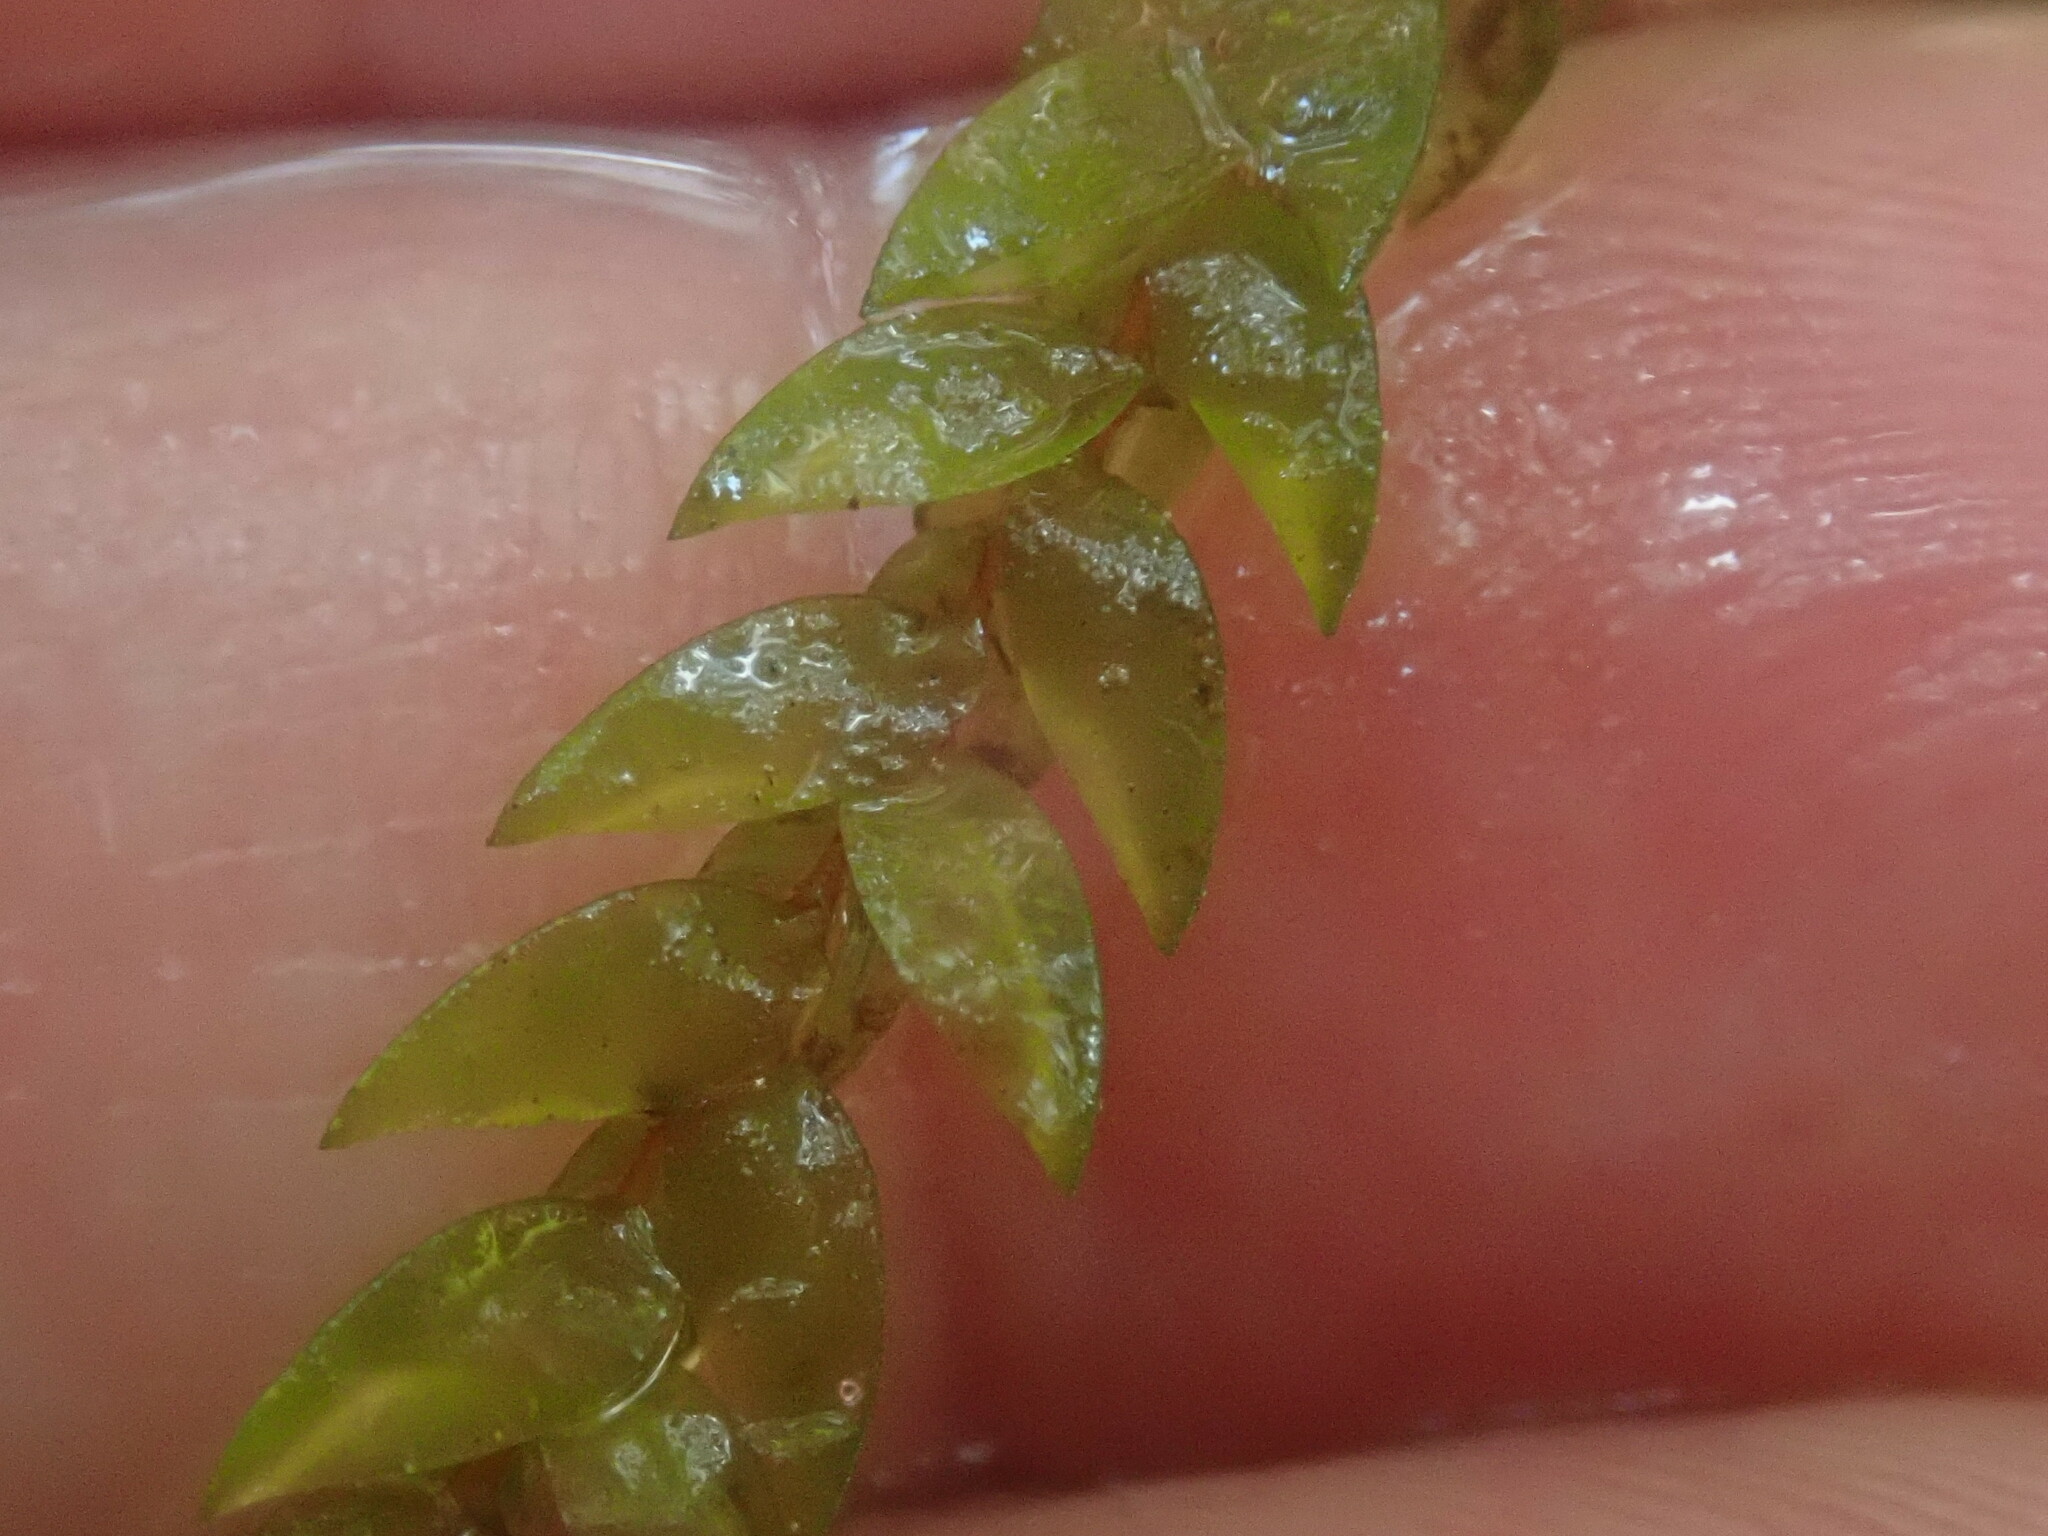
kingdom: Plantae
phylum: Bryophyta
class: Bryopsida
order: Hypnales
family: Fontinalaceae
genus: Fontinalis
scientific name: Fontinalis antipyretica
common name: Greater water-moss
